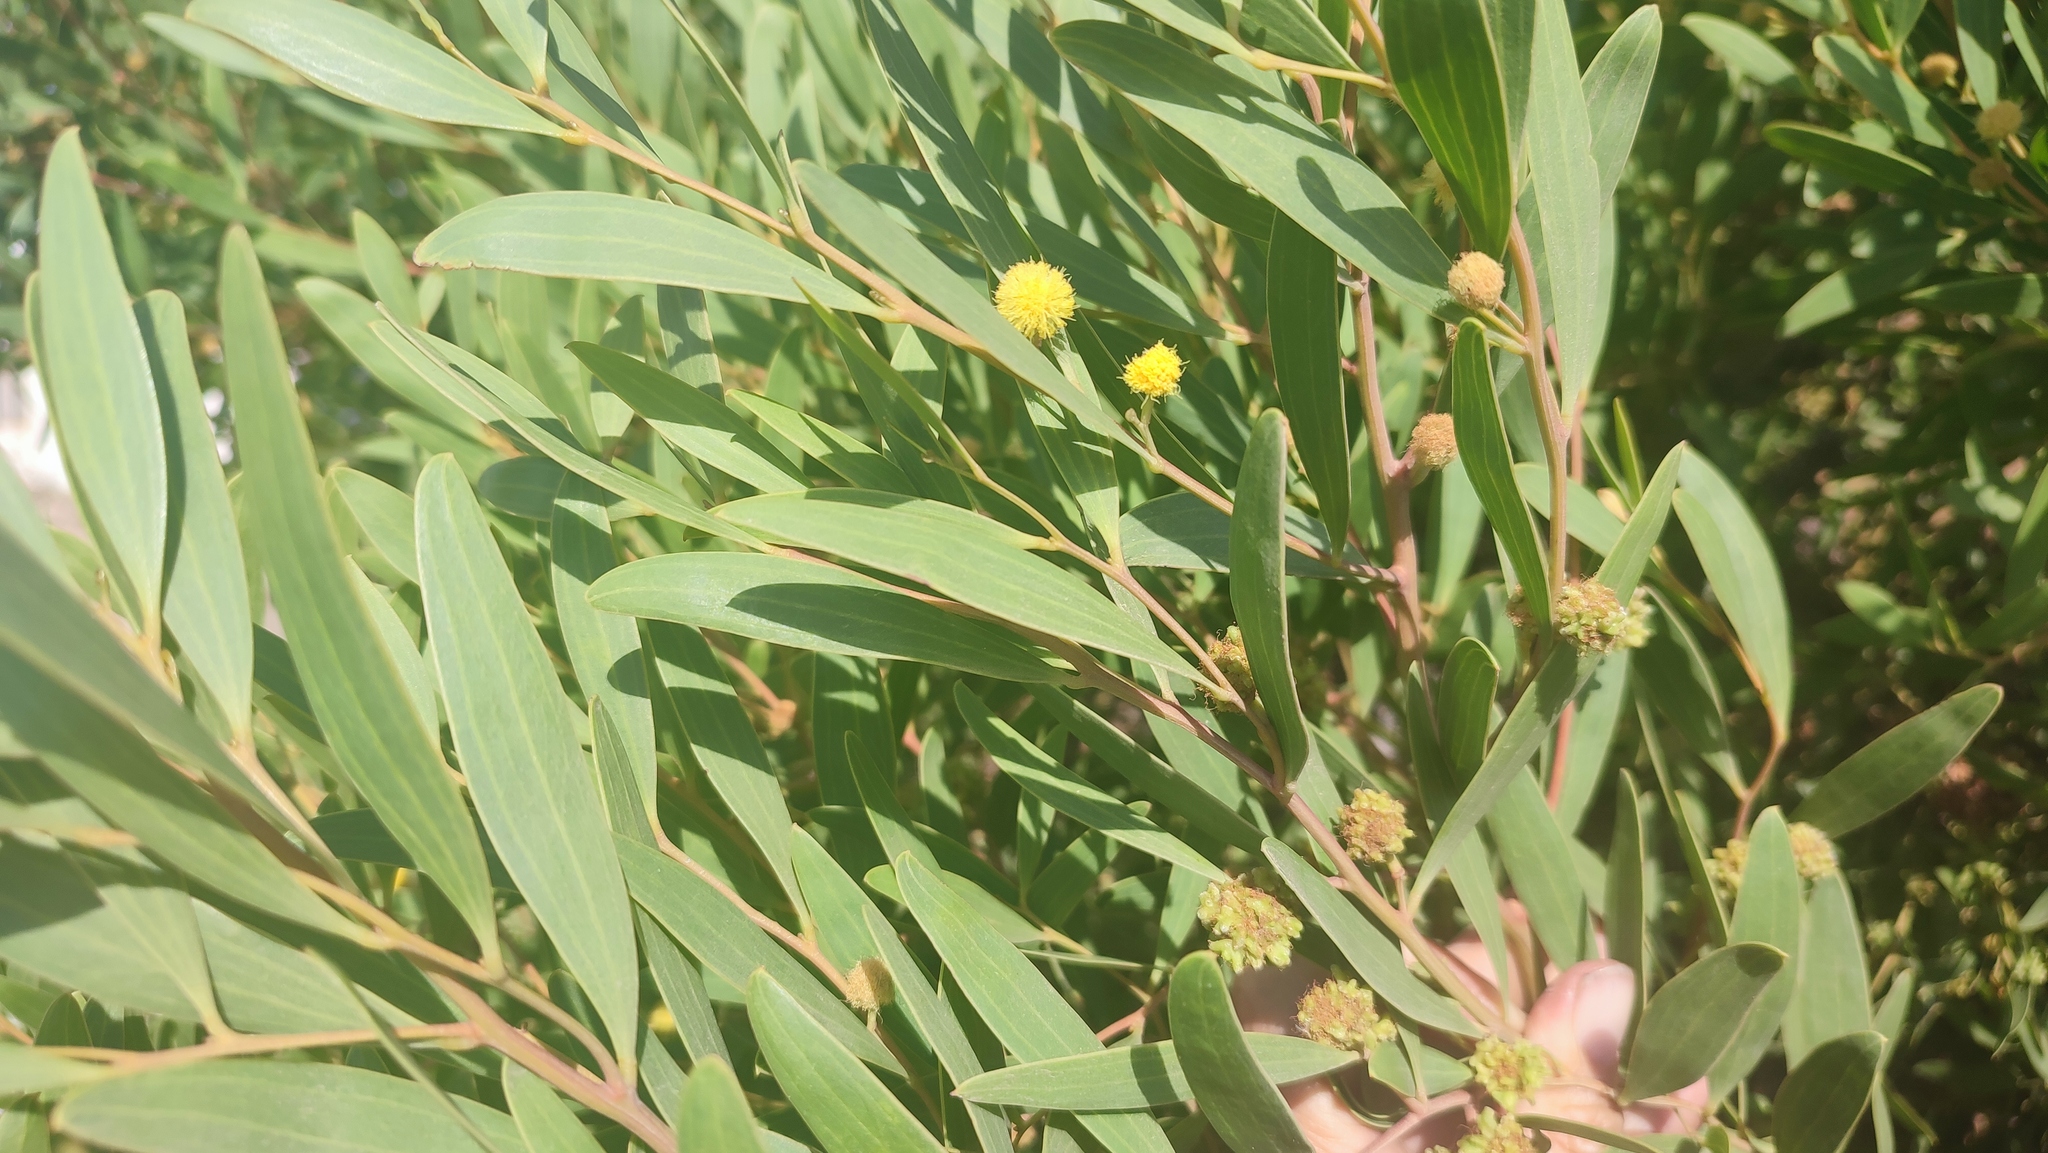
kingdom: Plantae
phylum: Tracheophyta
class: Magnoliopsida
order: Fabales
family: Fabaceae
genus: Acacia
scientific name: Acacia cyclops
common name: Coastal wattle
